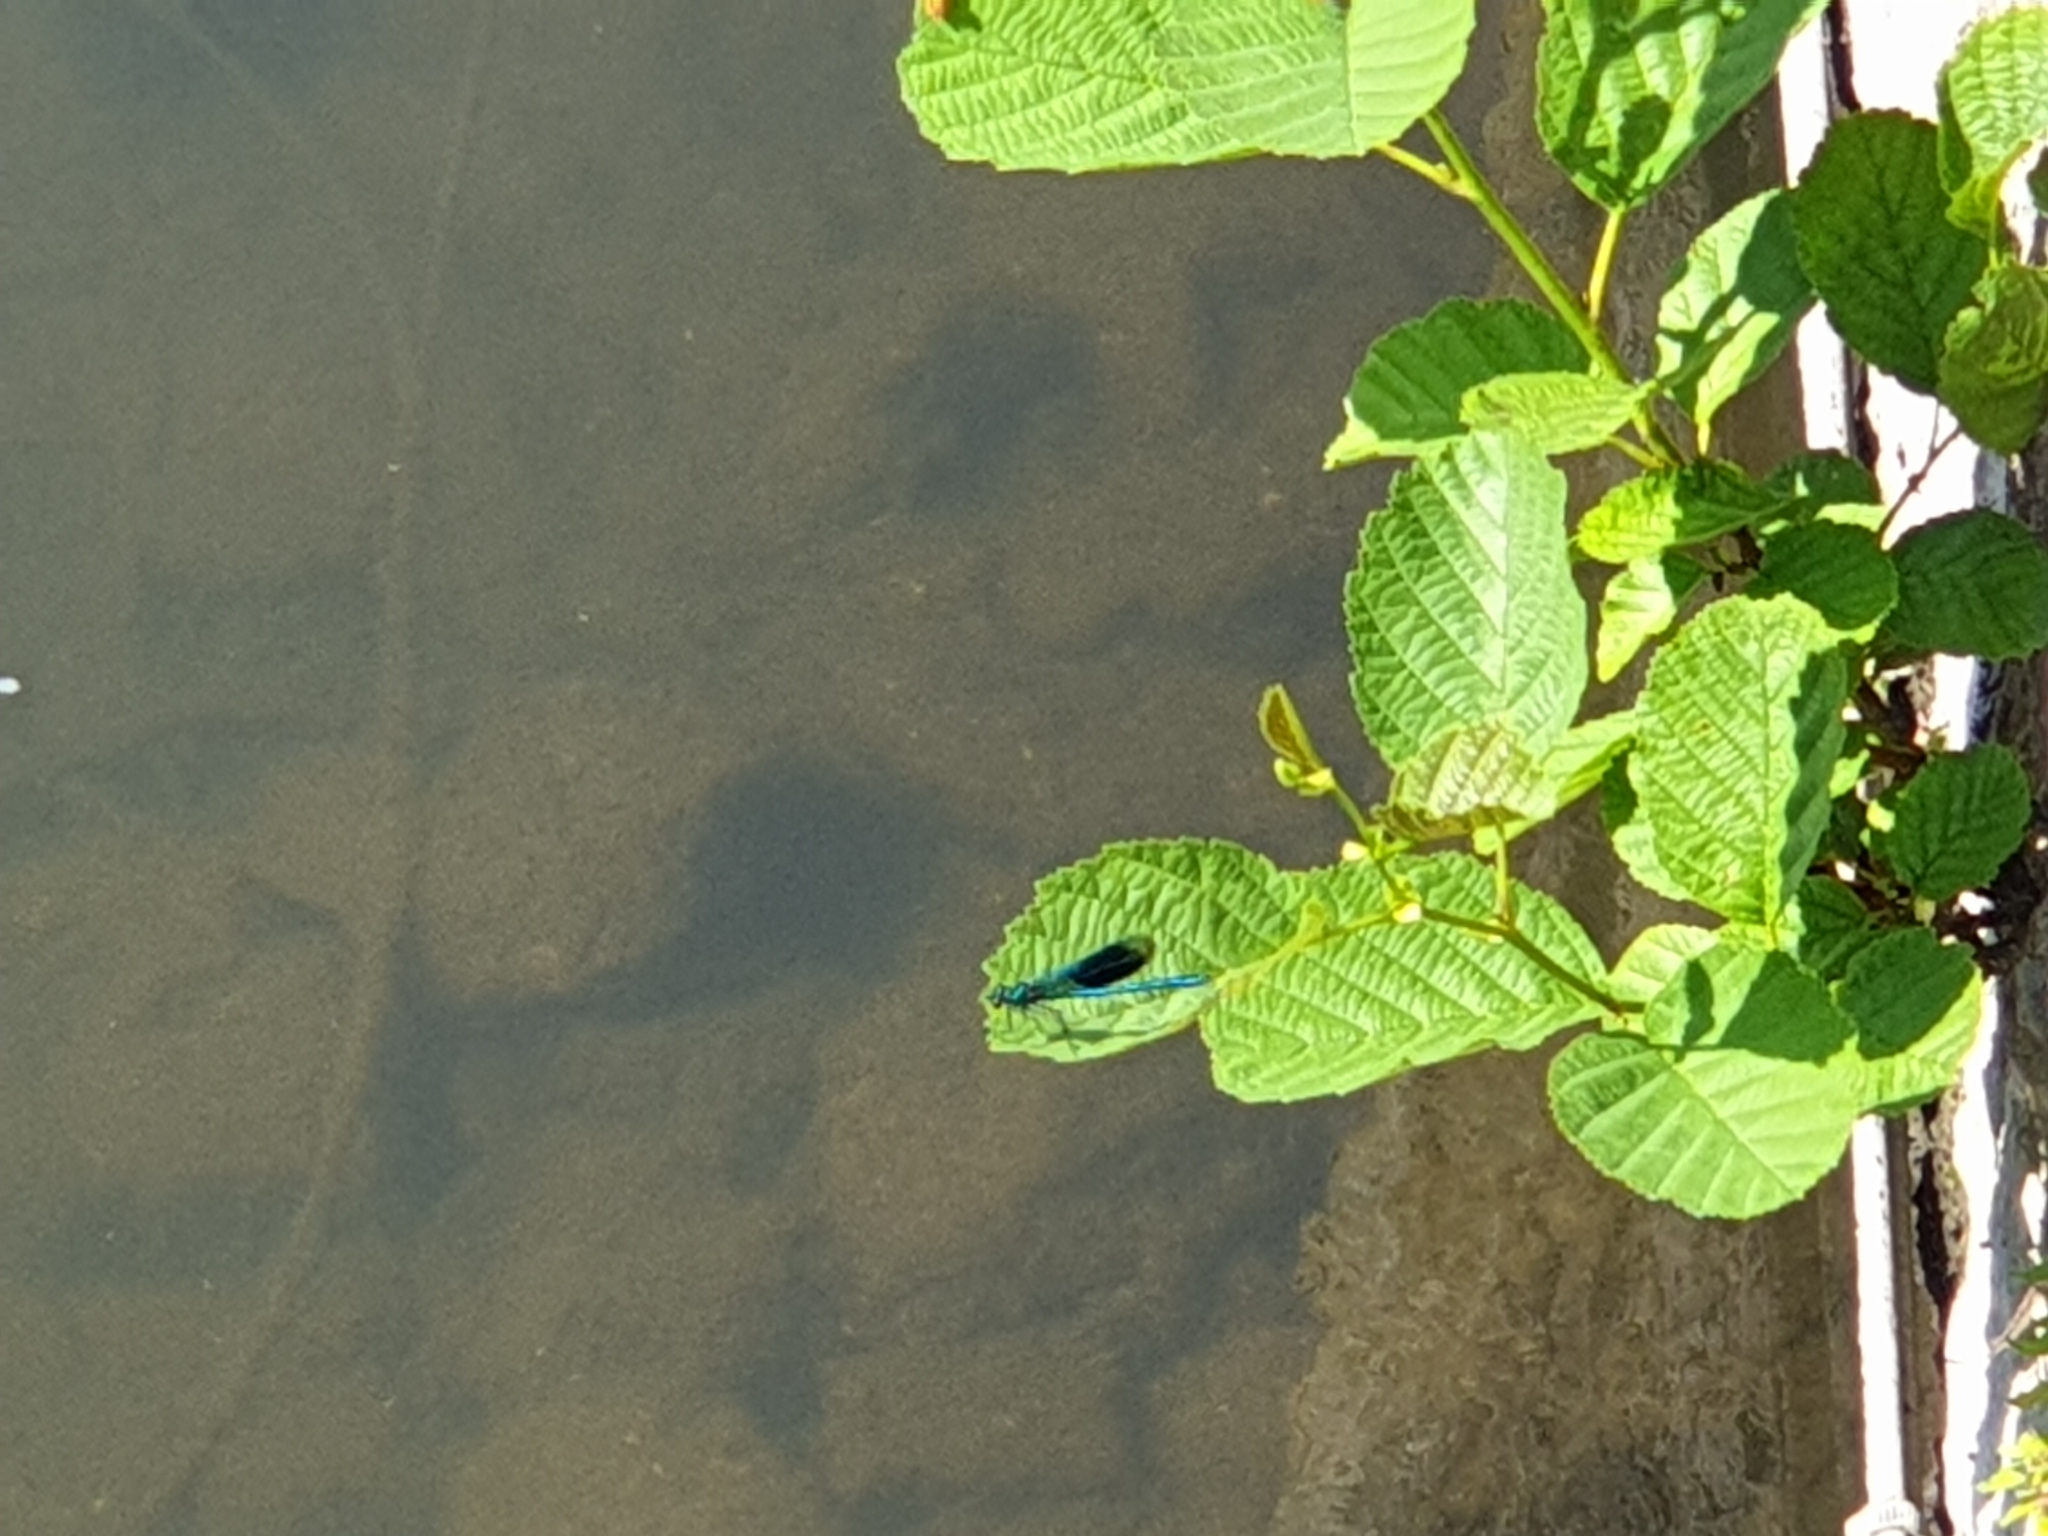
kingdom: Animalia
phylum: Arthropoda
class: Insecta
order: Odonata
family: Calopterygidae
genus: Calopteryx
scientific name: Calopteryx splendens
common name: Banded demoiselle
